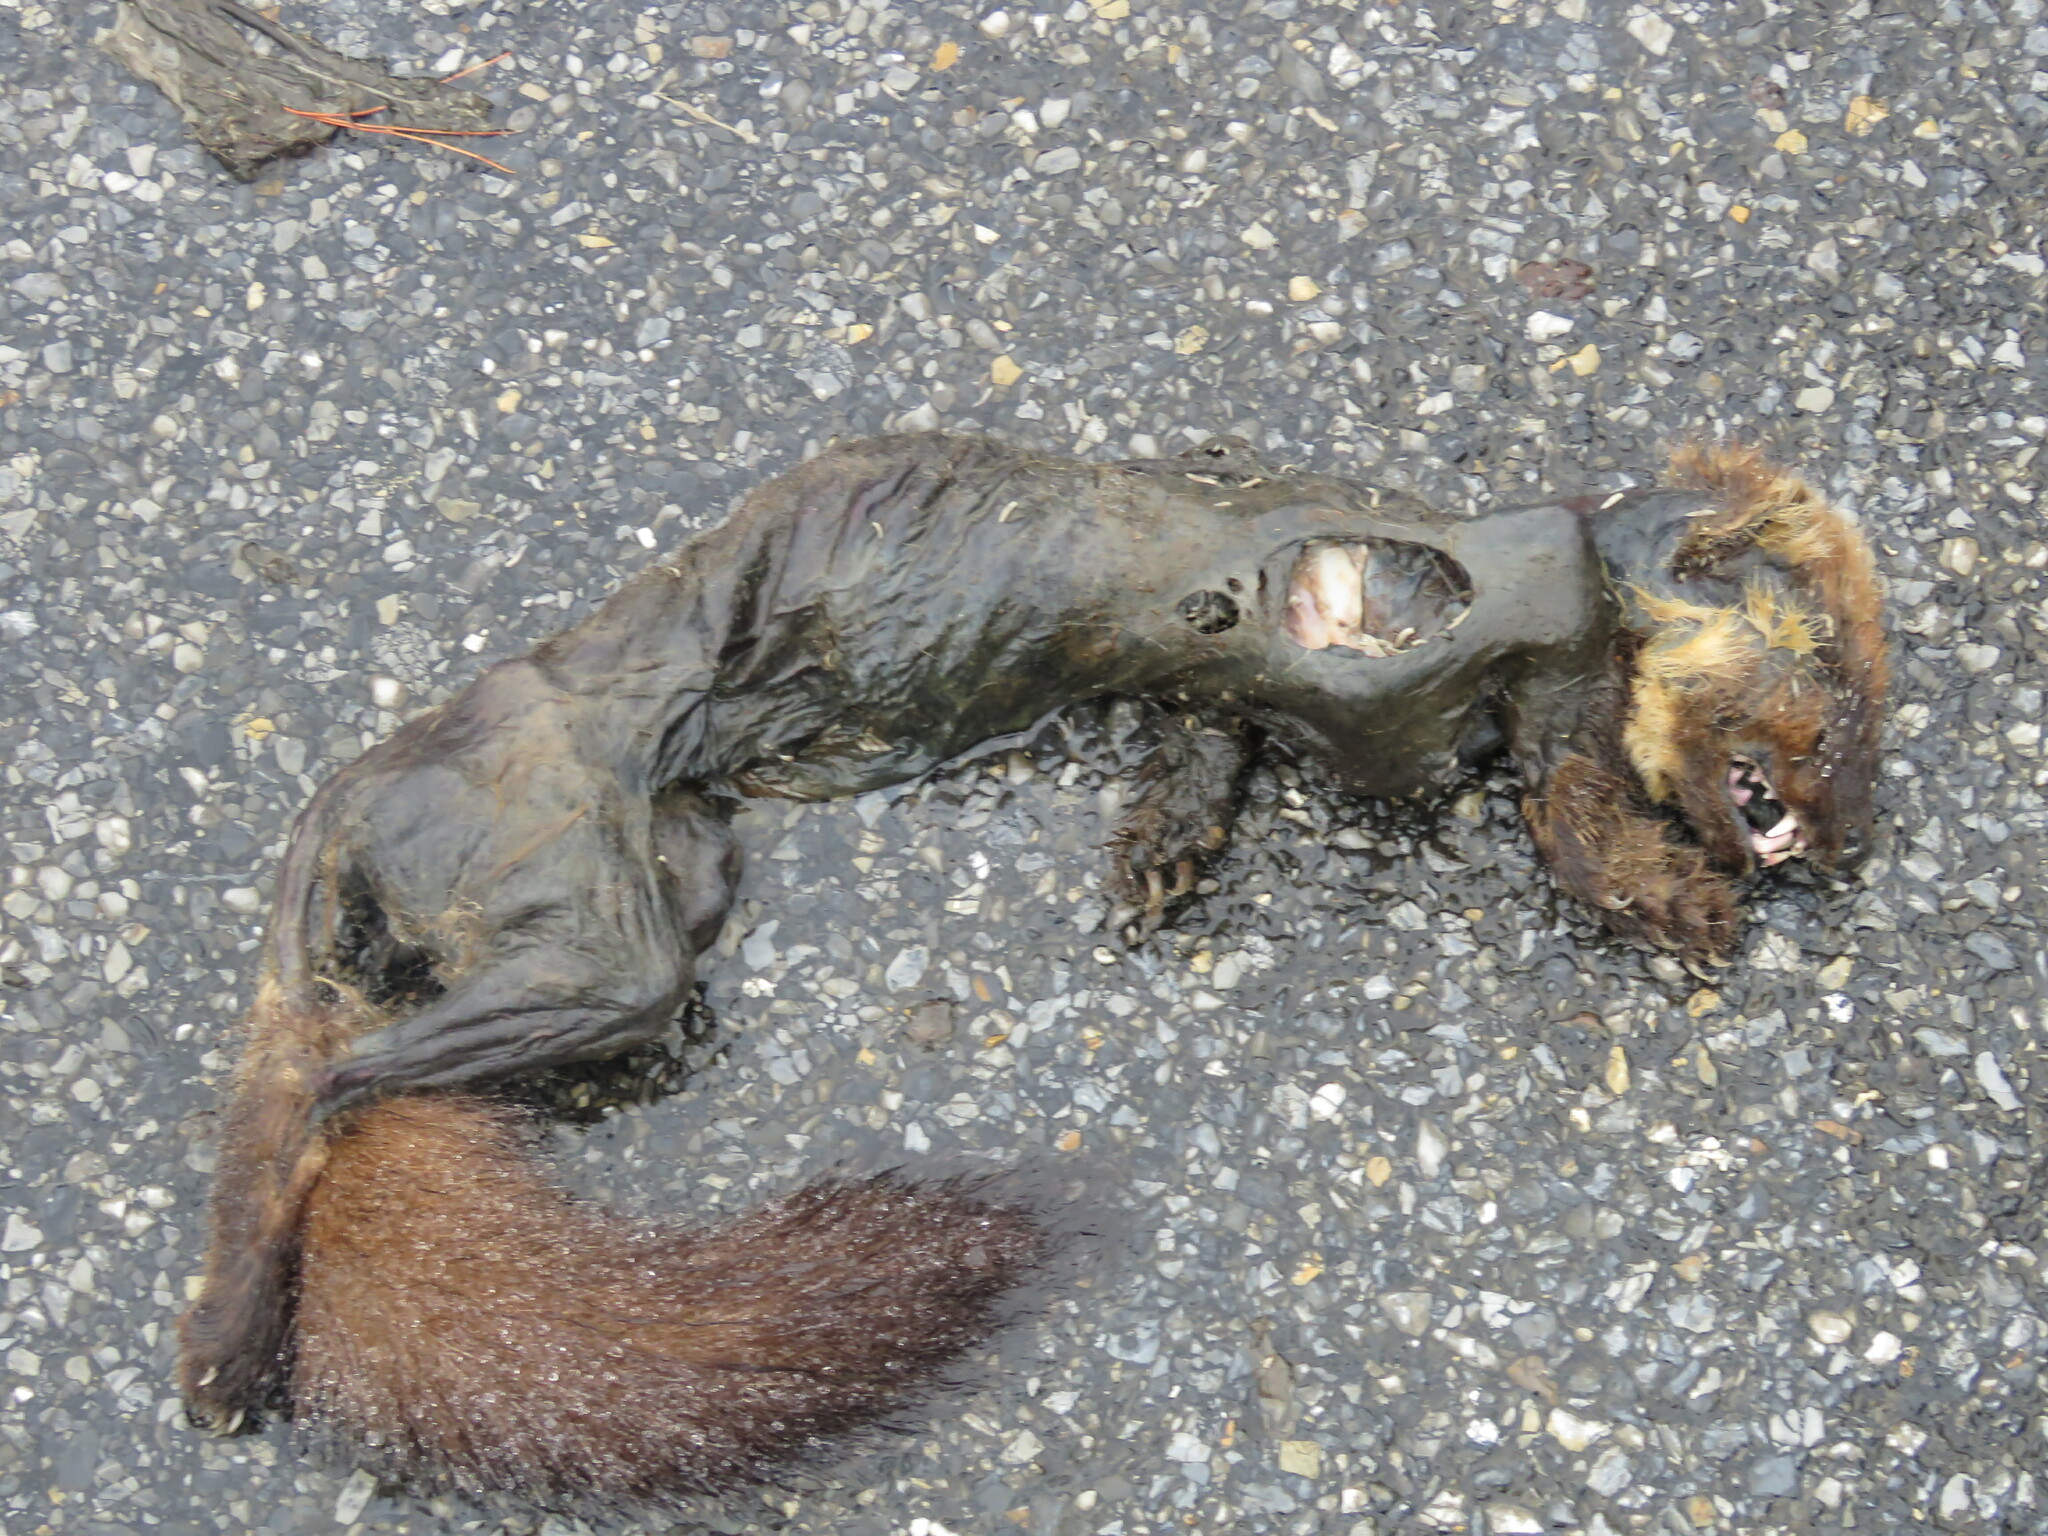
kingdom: Animalia
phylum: Chordata
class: Mammalia
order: Carnivora
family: Mustelidae
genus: Martes
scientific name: Martes martes
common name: European pine marten
